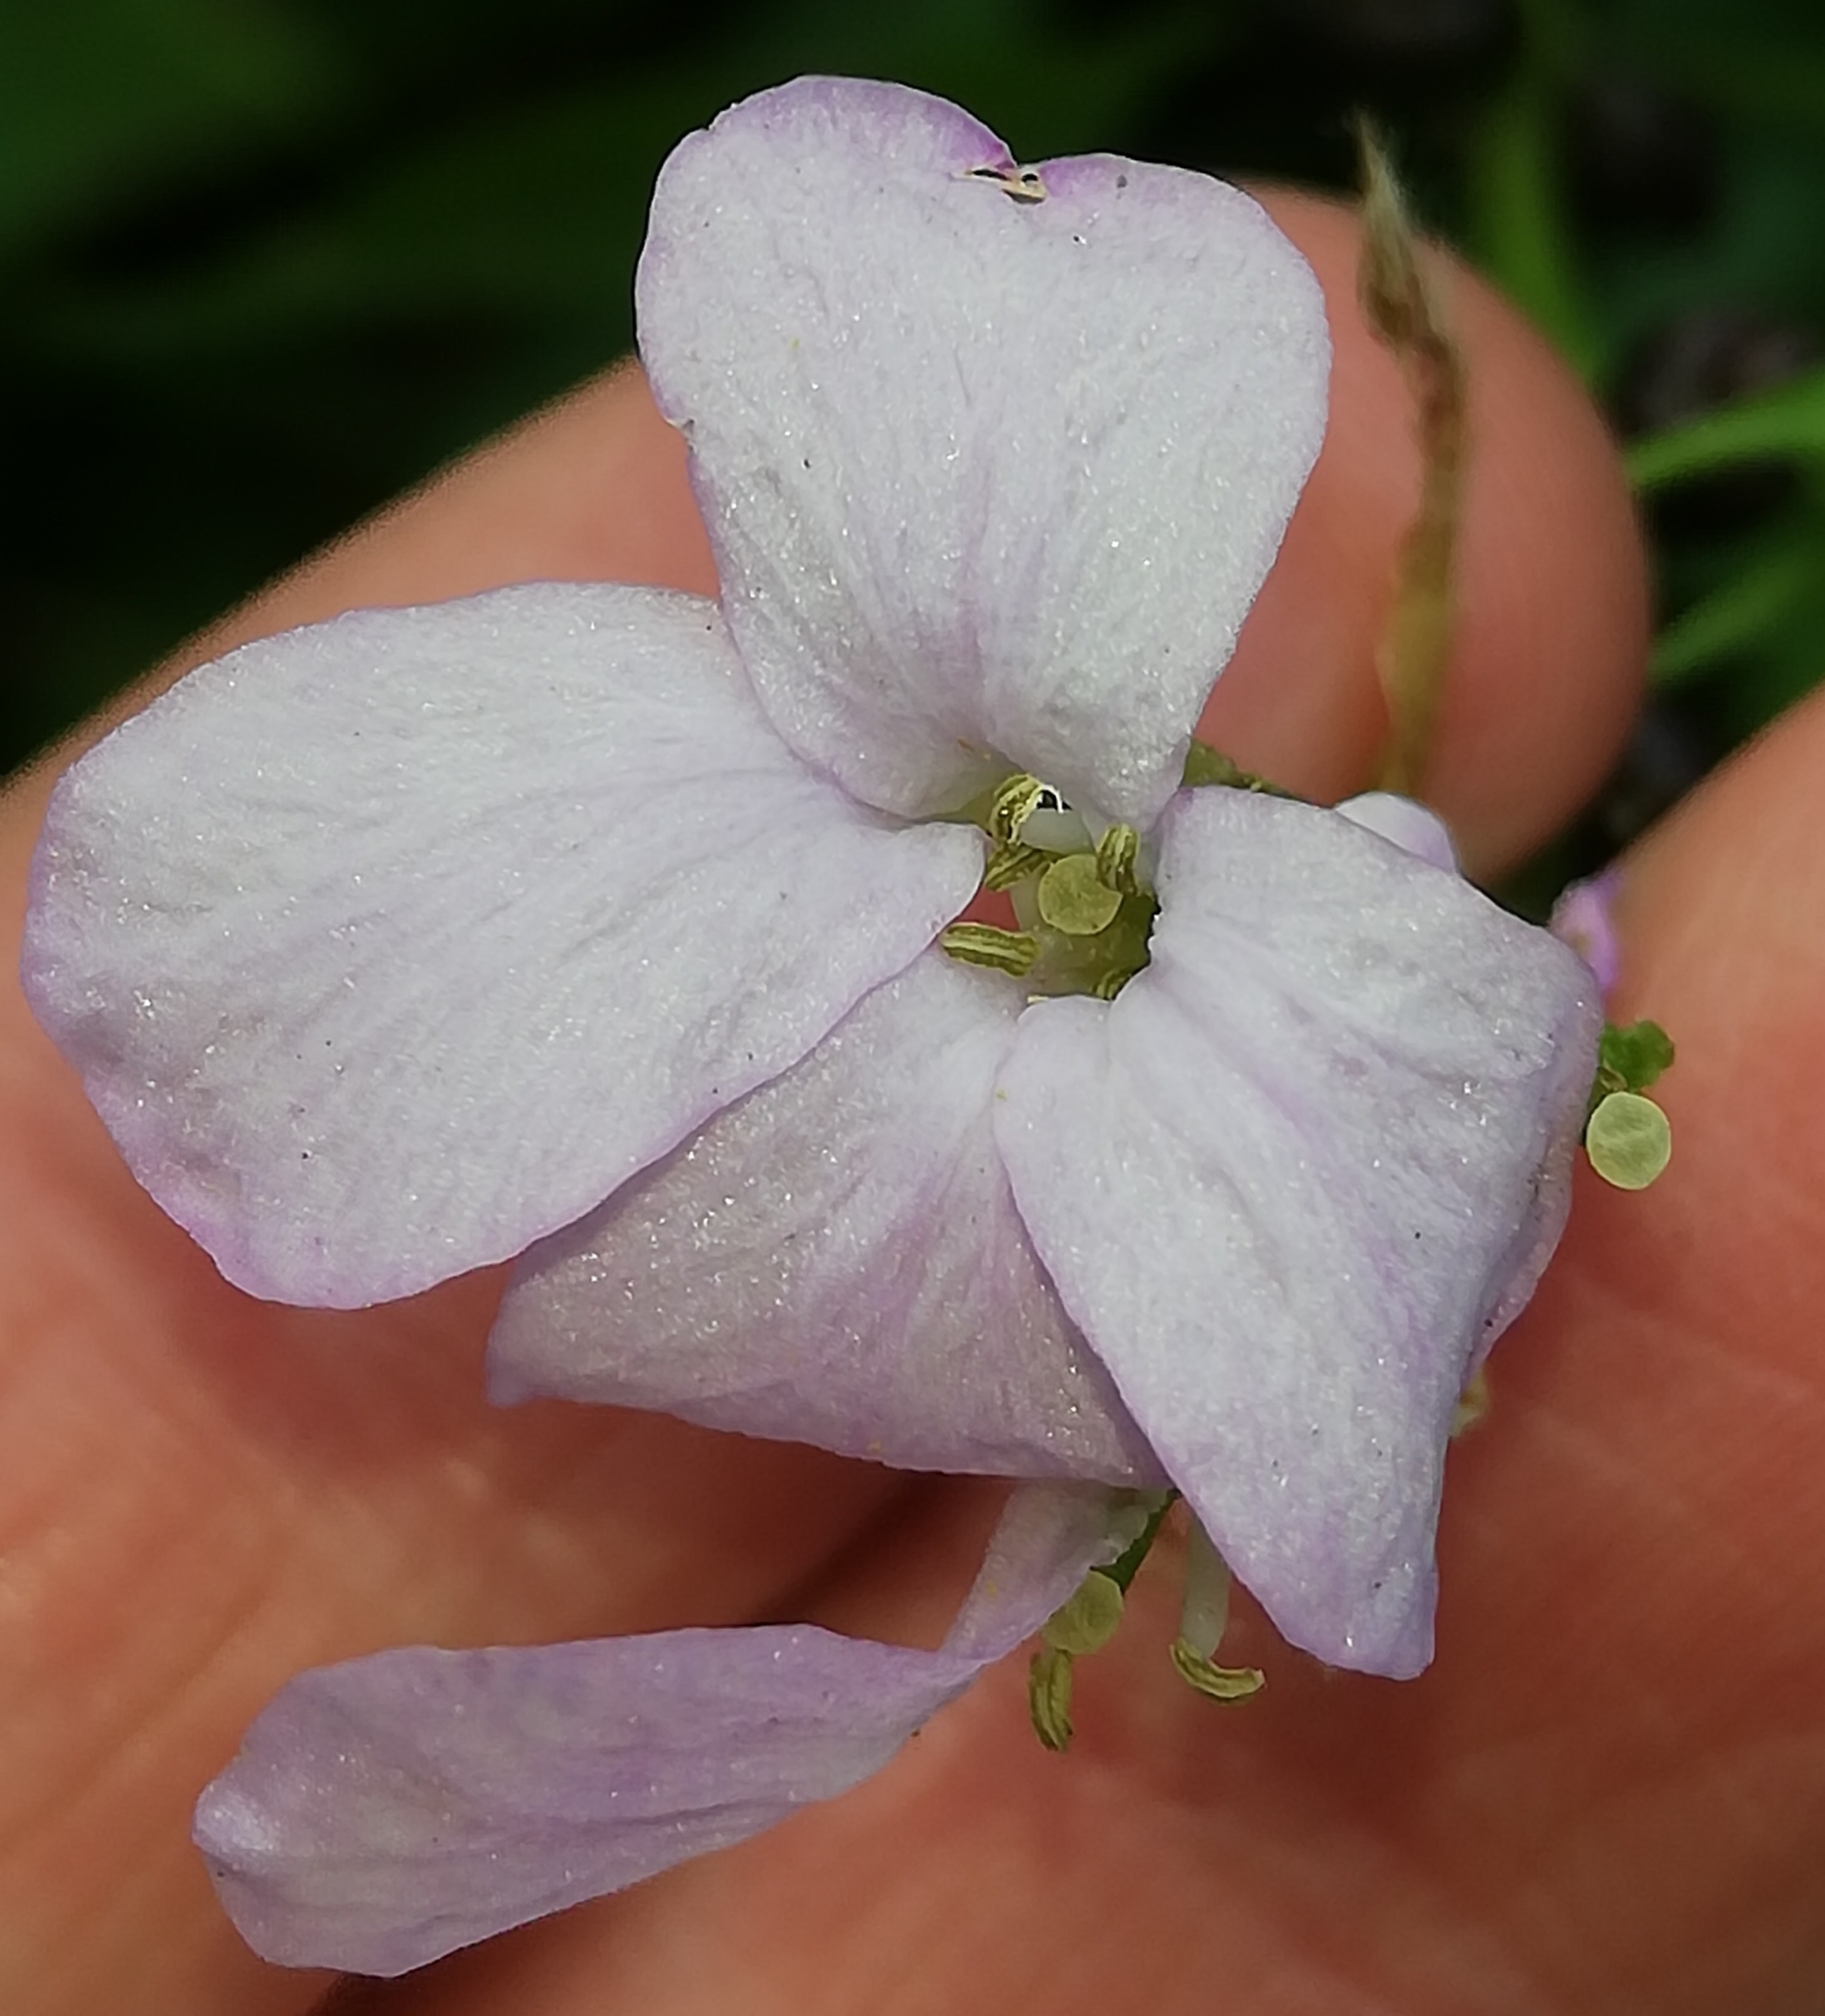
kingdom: Plantae
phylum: Tracheophyta
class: Magnoliopsida
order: Brassicales
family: Brassicaceae
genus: Cardamine
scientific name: Cardamine bulbifera
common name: Coralroot bittercress
